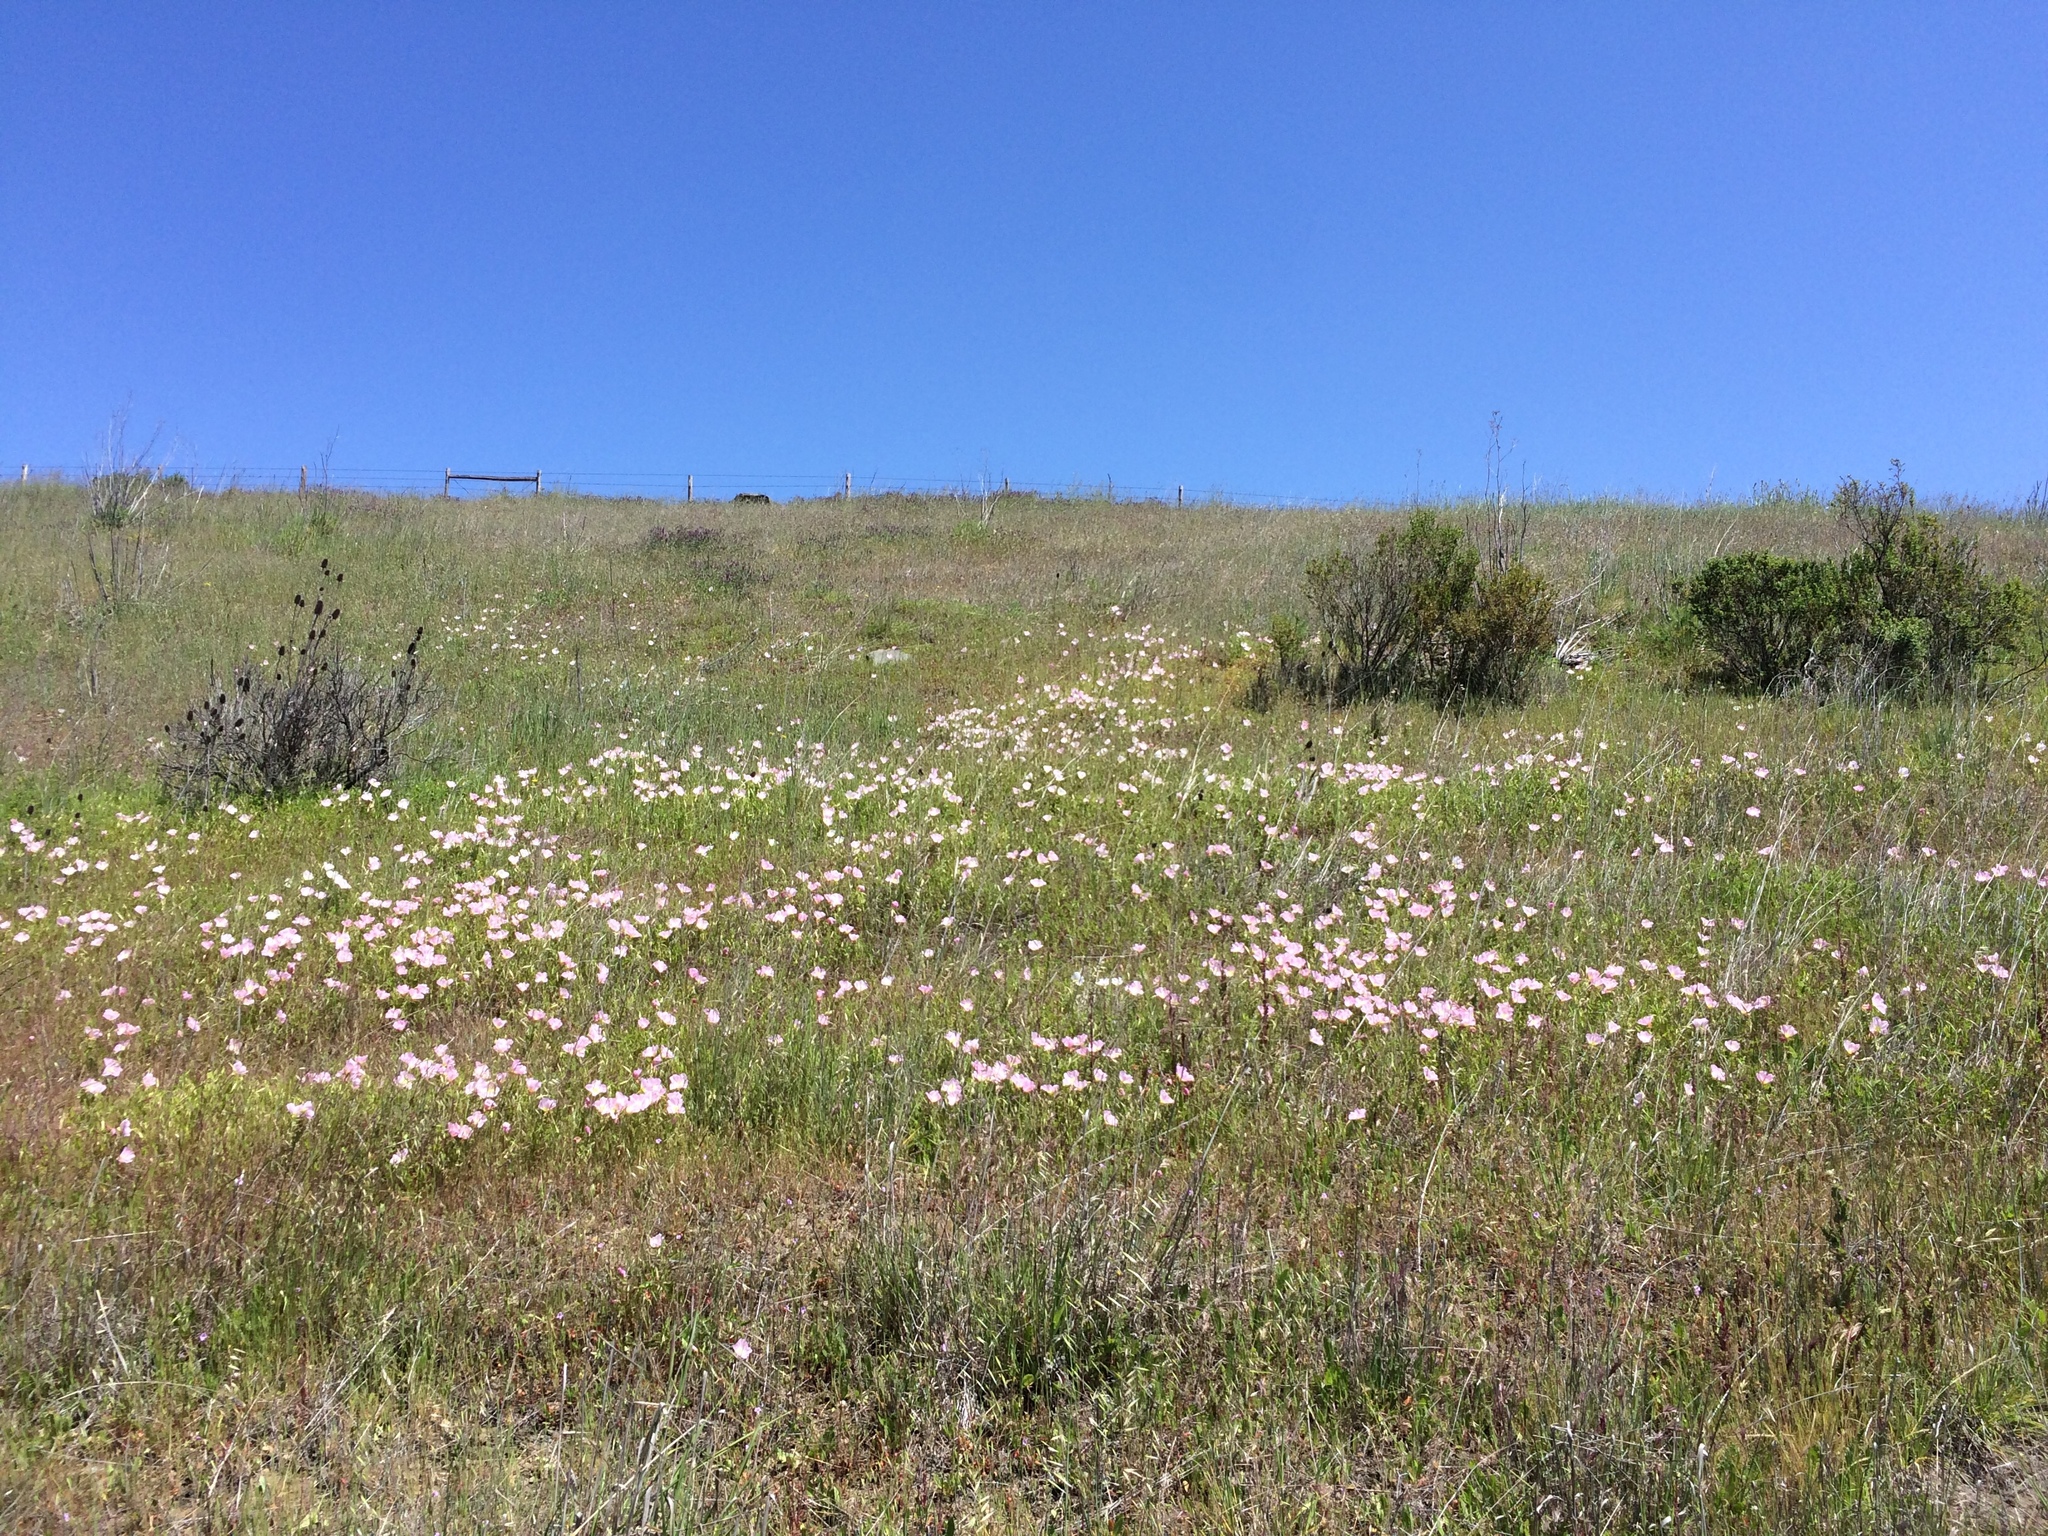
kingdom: Plantae
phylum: Tracheophyta
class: Magnoliopsida
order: Myrtales
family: Onagraceae
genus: Oenothera
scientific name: Oenothera speciosa
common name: White evening-primrose
